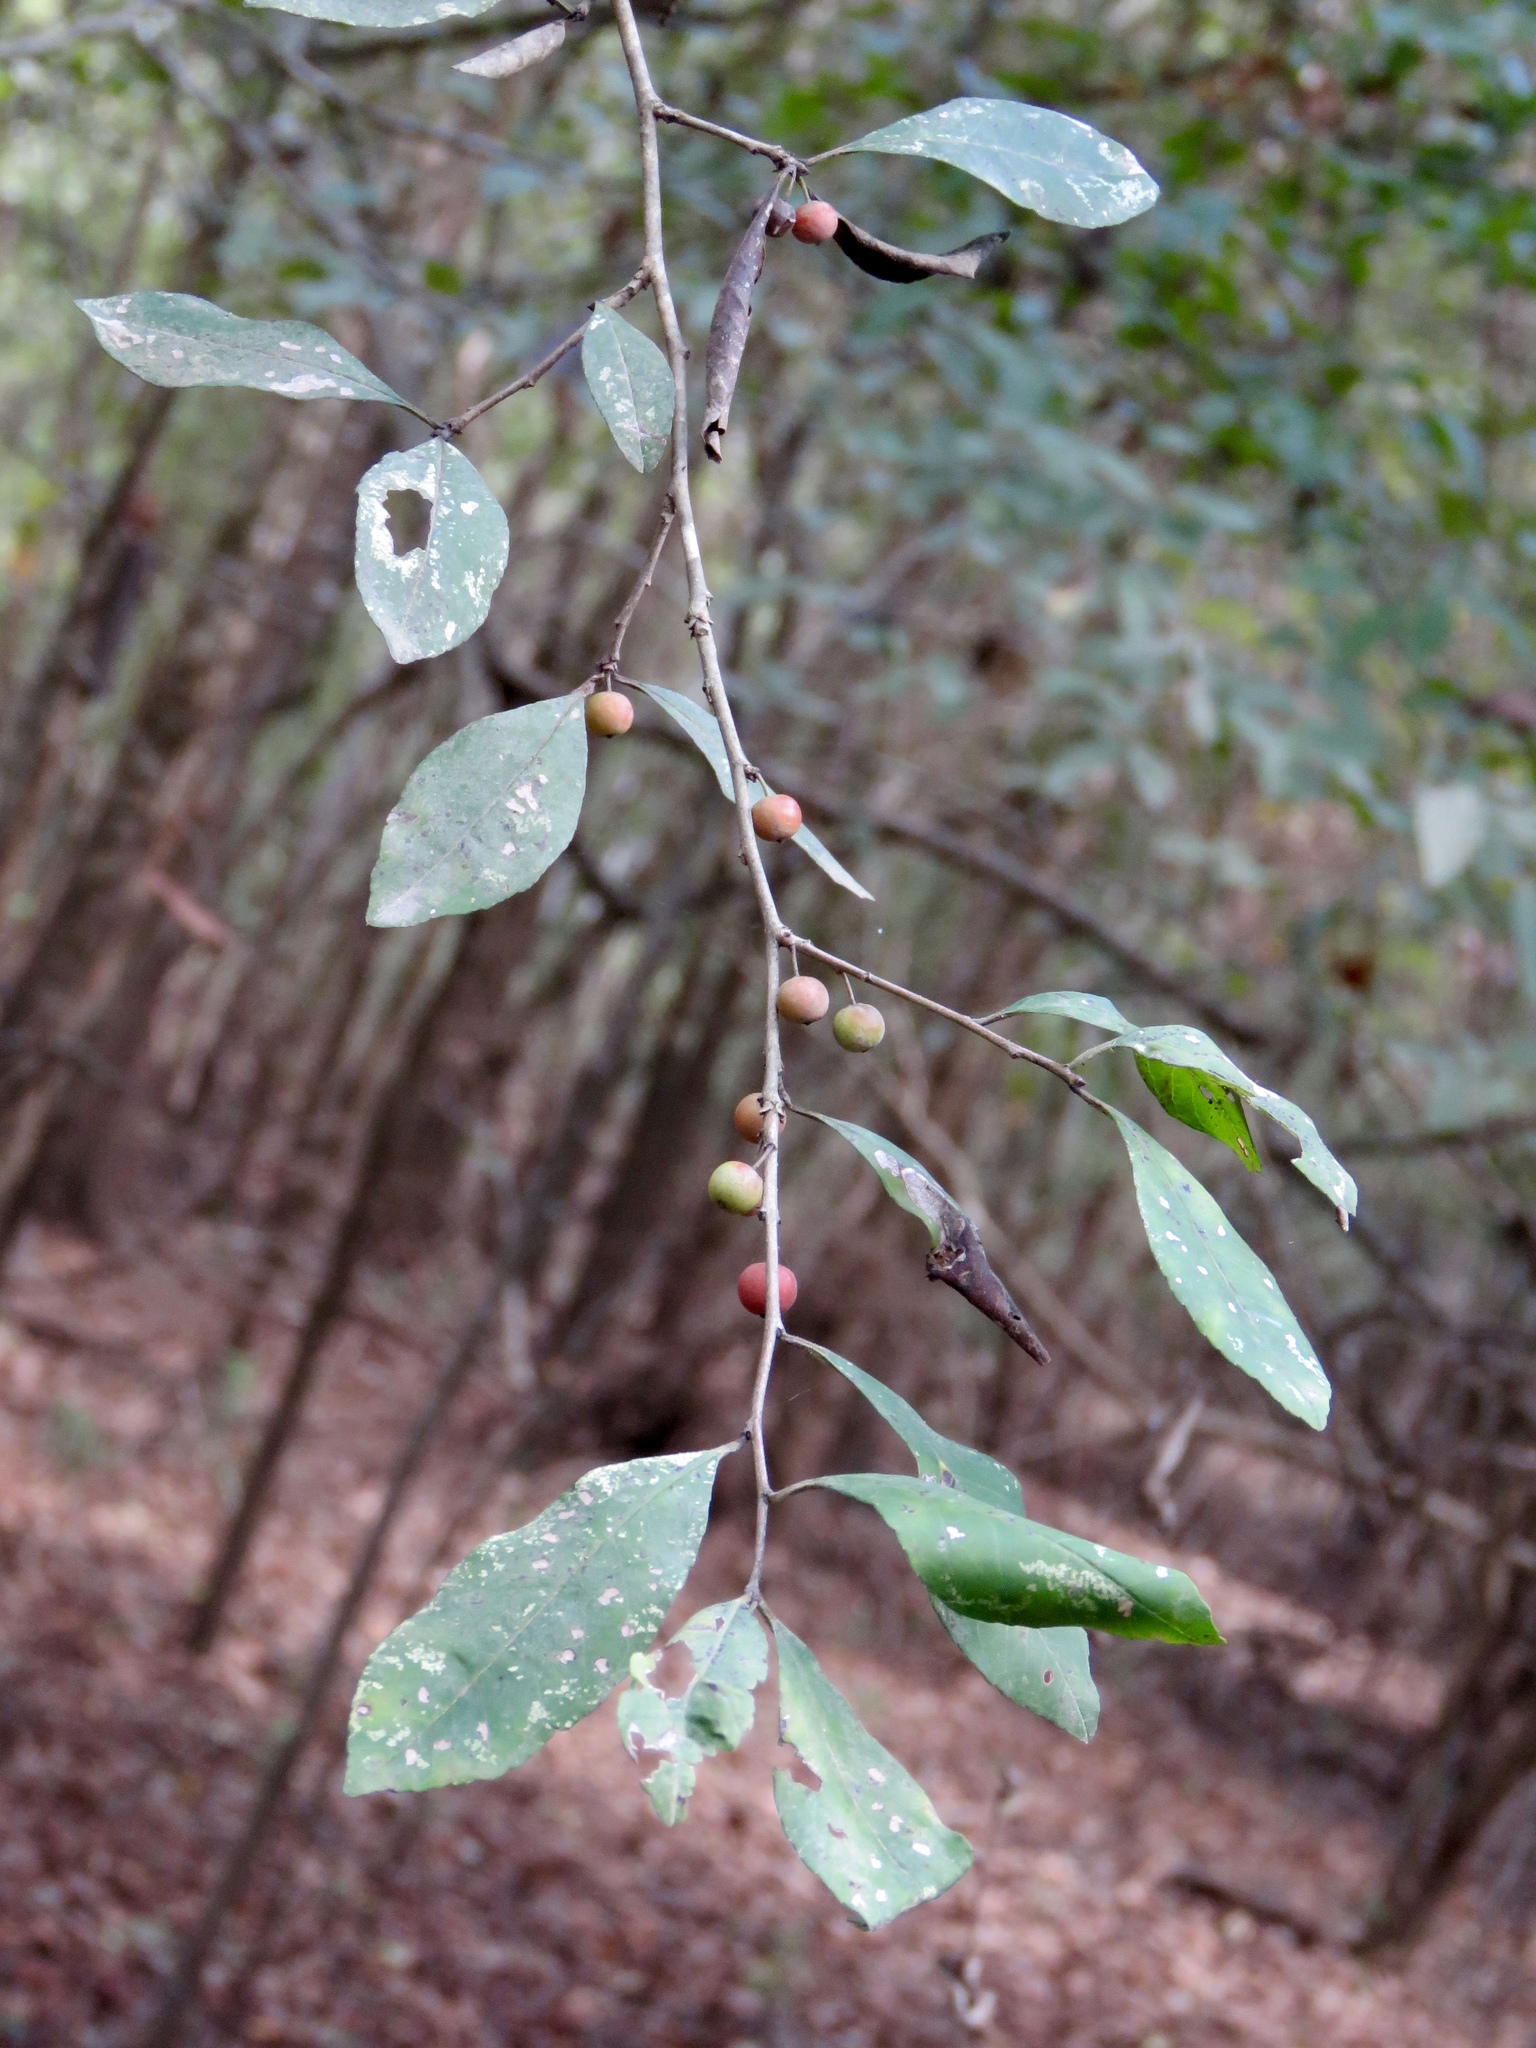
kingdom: Plantae
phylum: Tracheophyta
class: Magnoliopsida
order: Aquifoliales
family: Aquifoliaceae
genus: Ilex
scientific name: Ilex decidua
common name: Possum-haw
